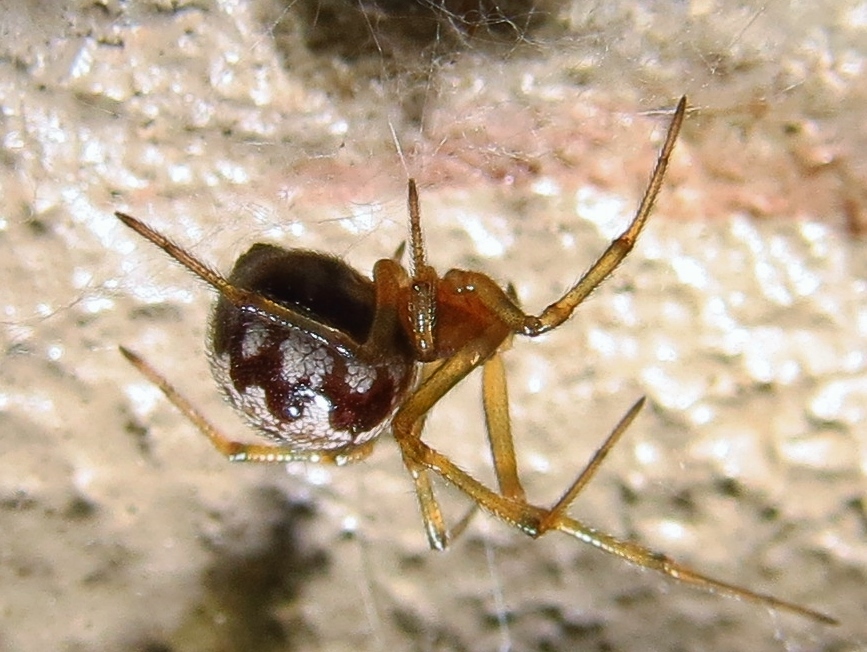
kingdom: Animalia
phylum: Arthropoda
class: Arachnida
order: Araneae
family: Theridiidae
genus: Steatoda
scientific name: Steatoda triangulosa
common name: Triangulate bud spider
